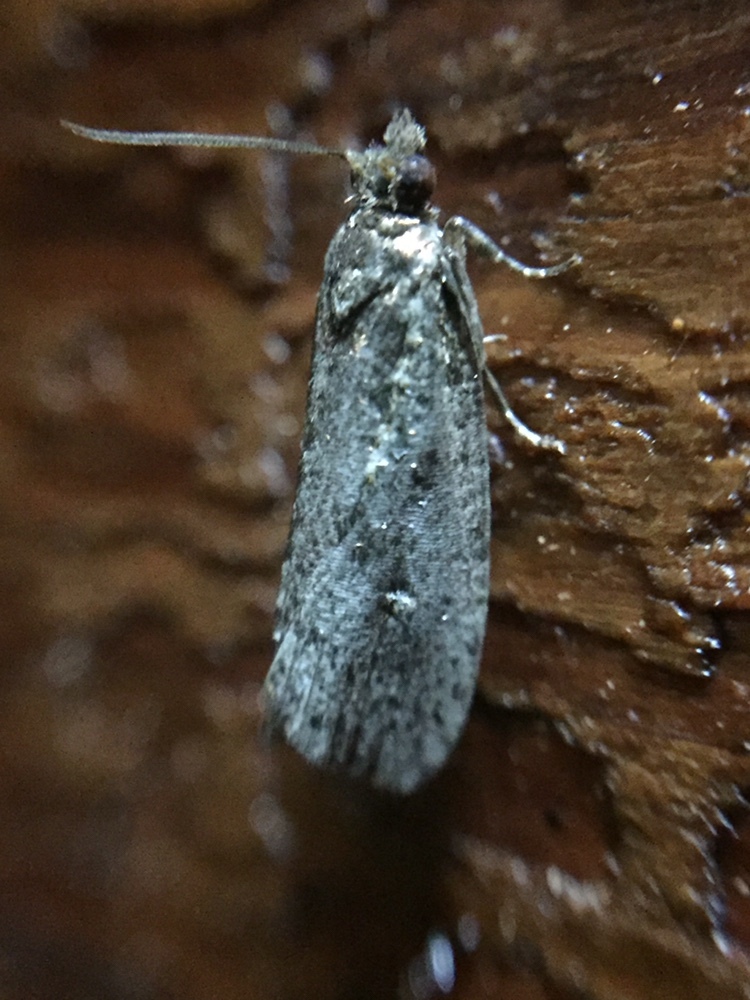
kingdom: Animalia
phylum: Arthropoda
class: Insecta
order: Lepidoptera
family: Tortricidae
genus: Cryptaspasma
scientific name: Cryptaspasma querula
